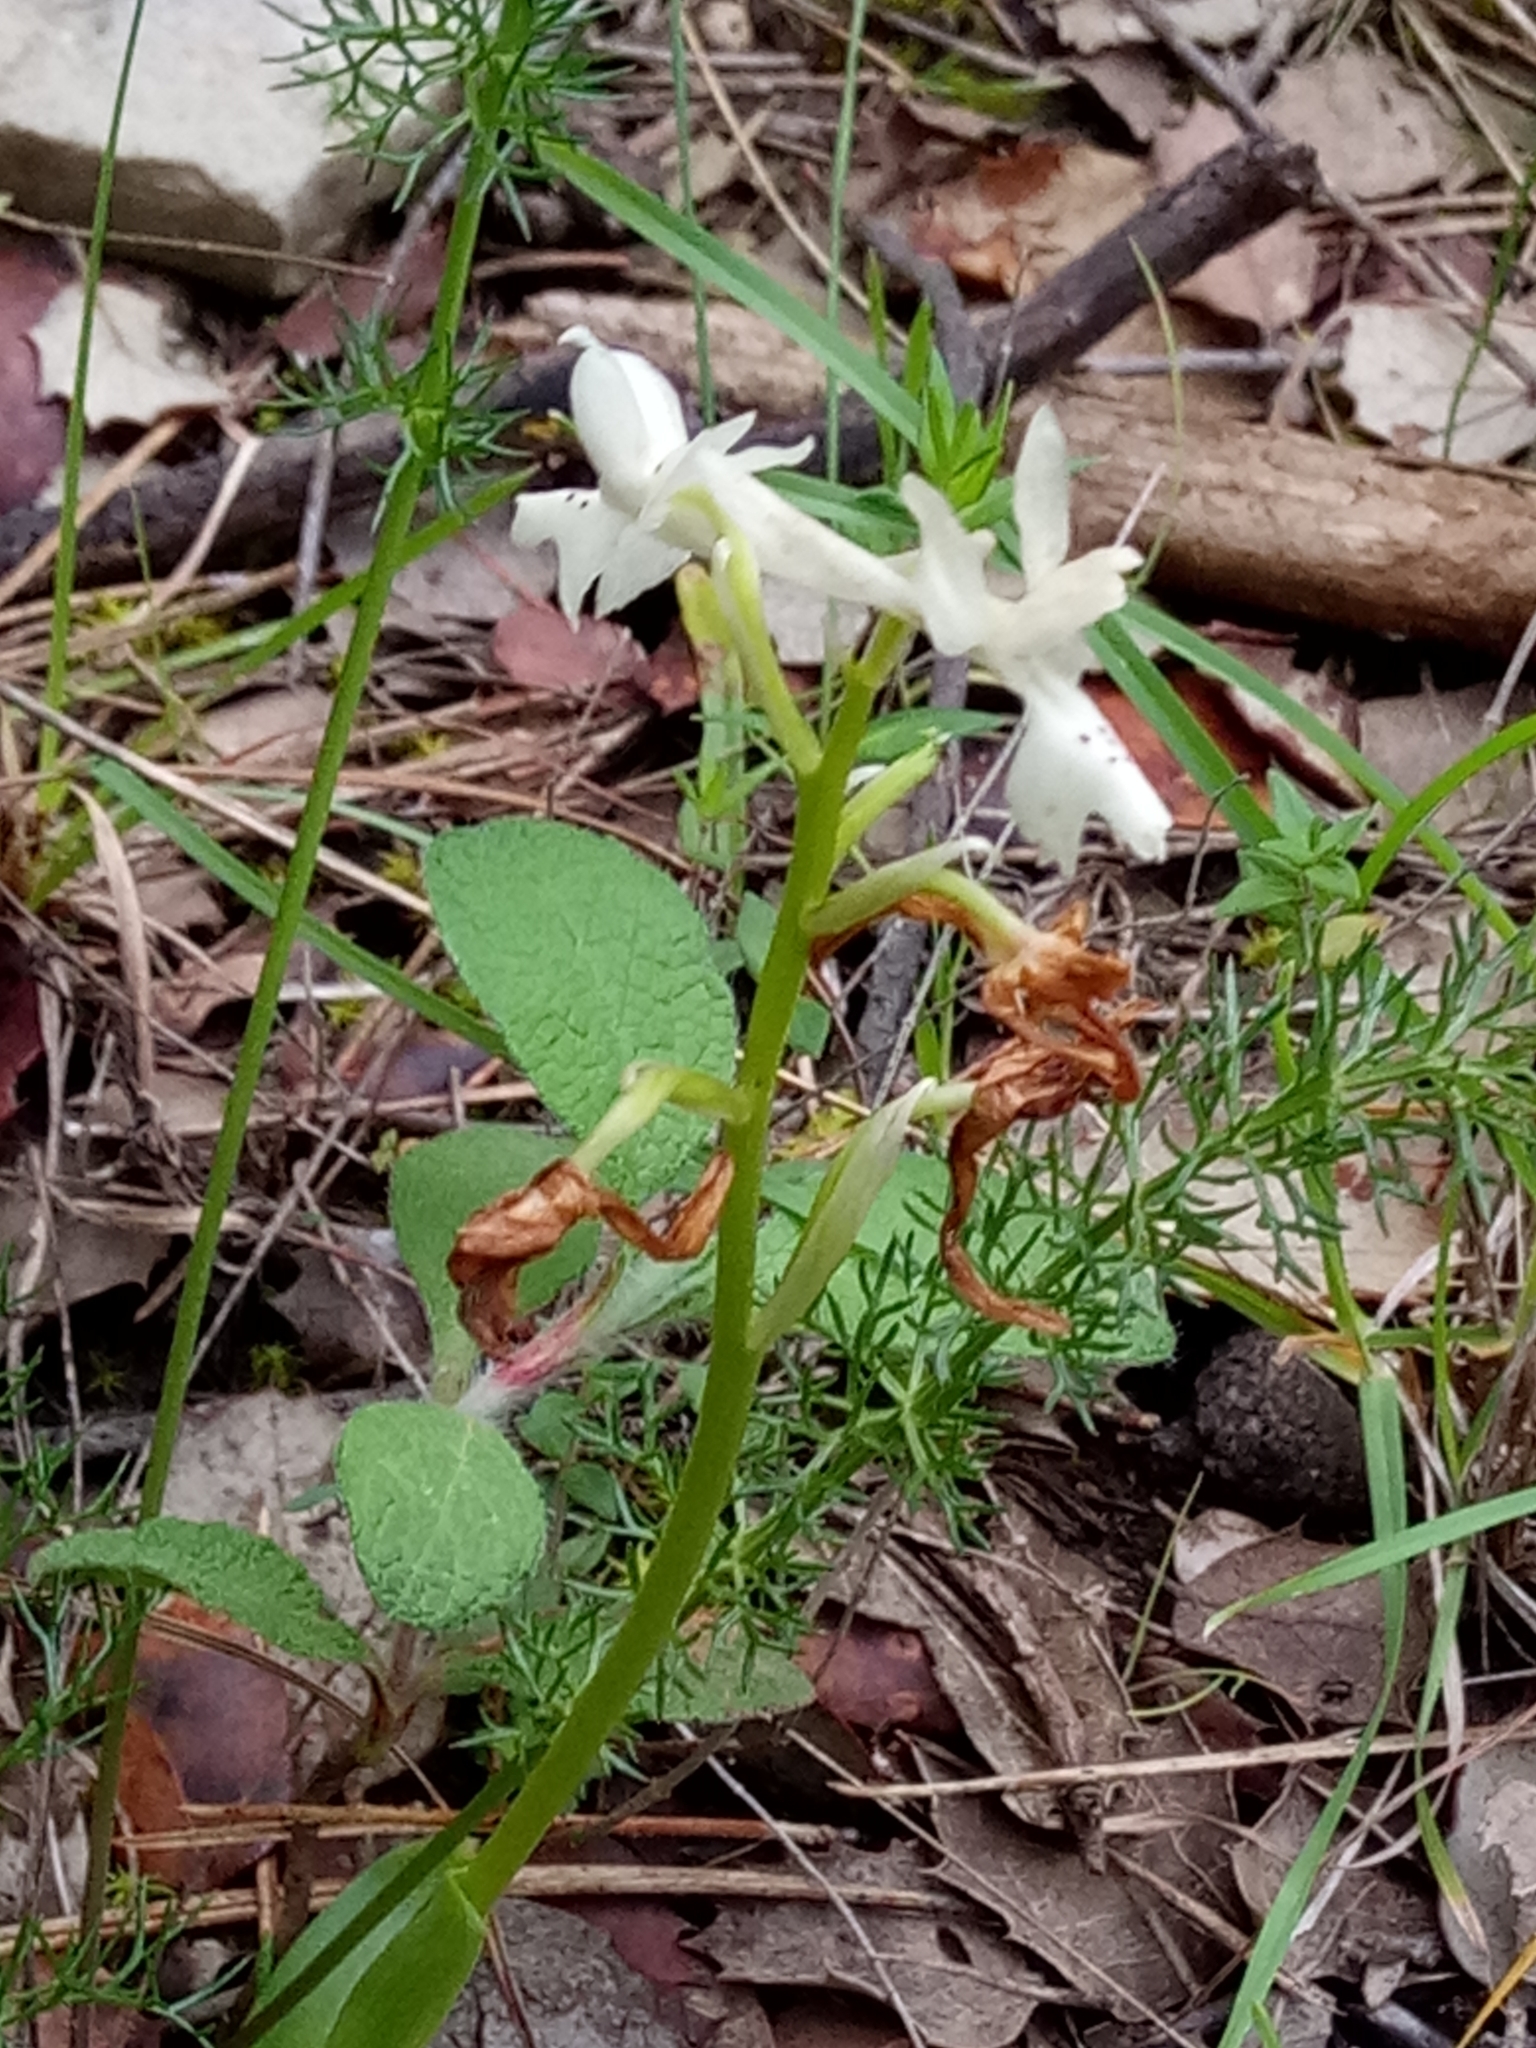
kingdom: Plantae
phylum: Tracheophyta
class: Liliopsida
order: Asparagales
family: Orchidaceae
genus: Orchis
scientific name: Orchis laeta
